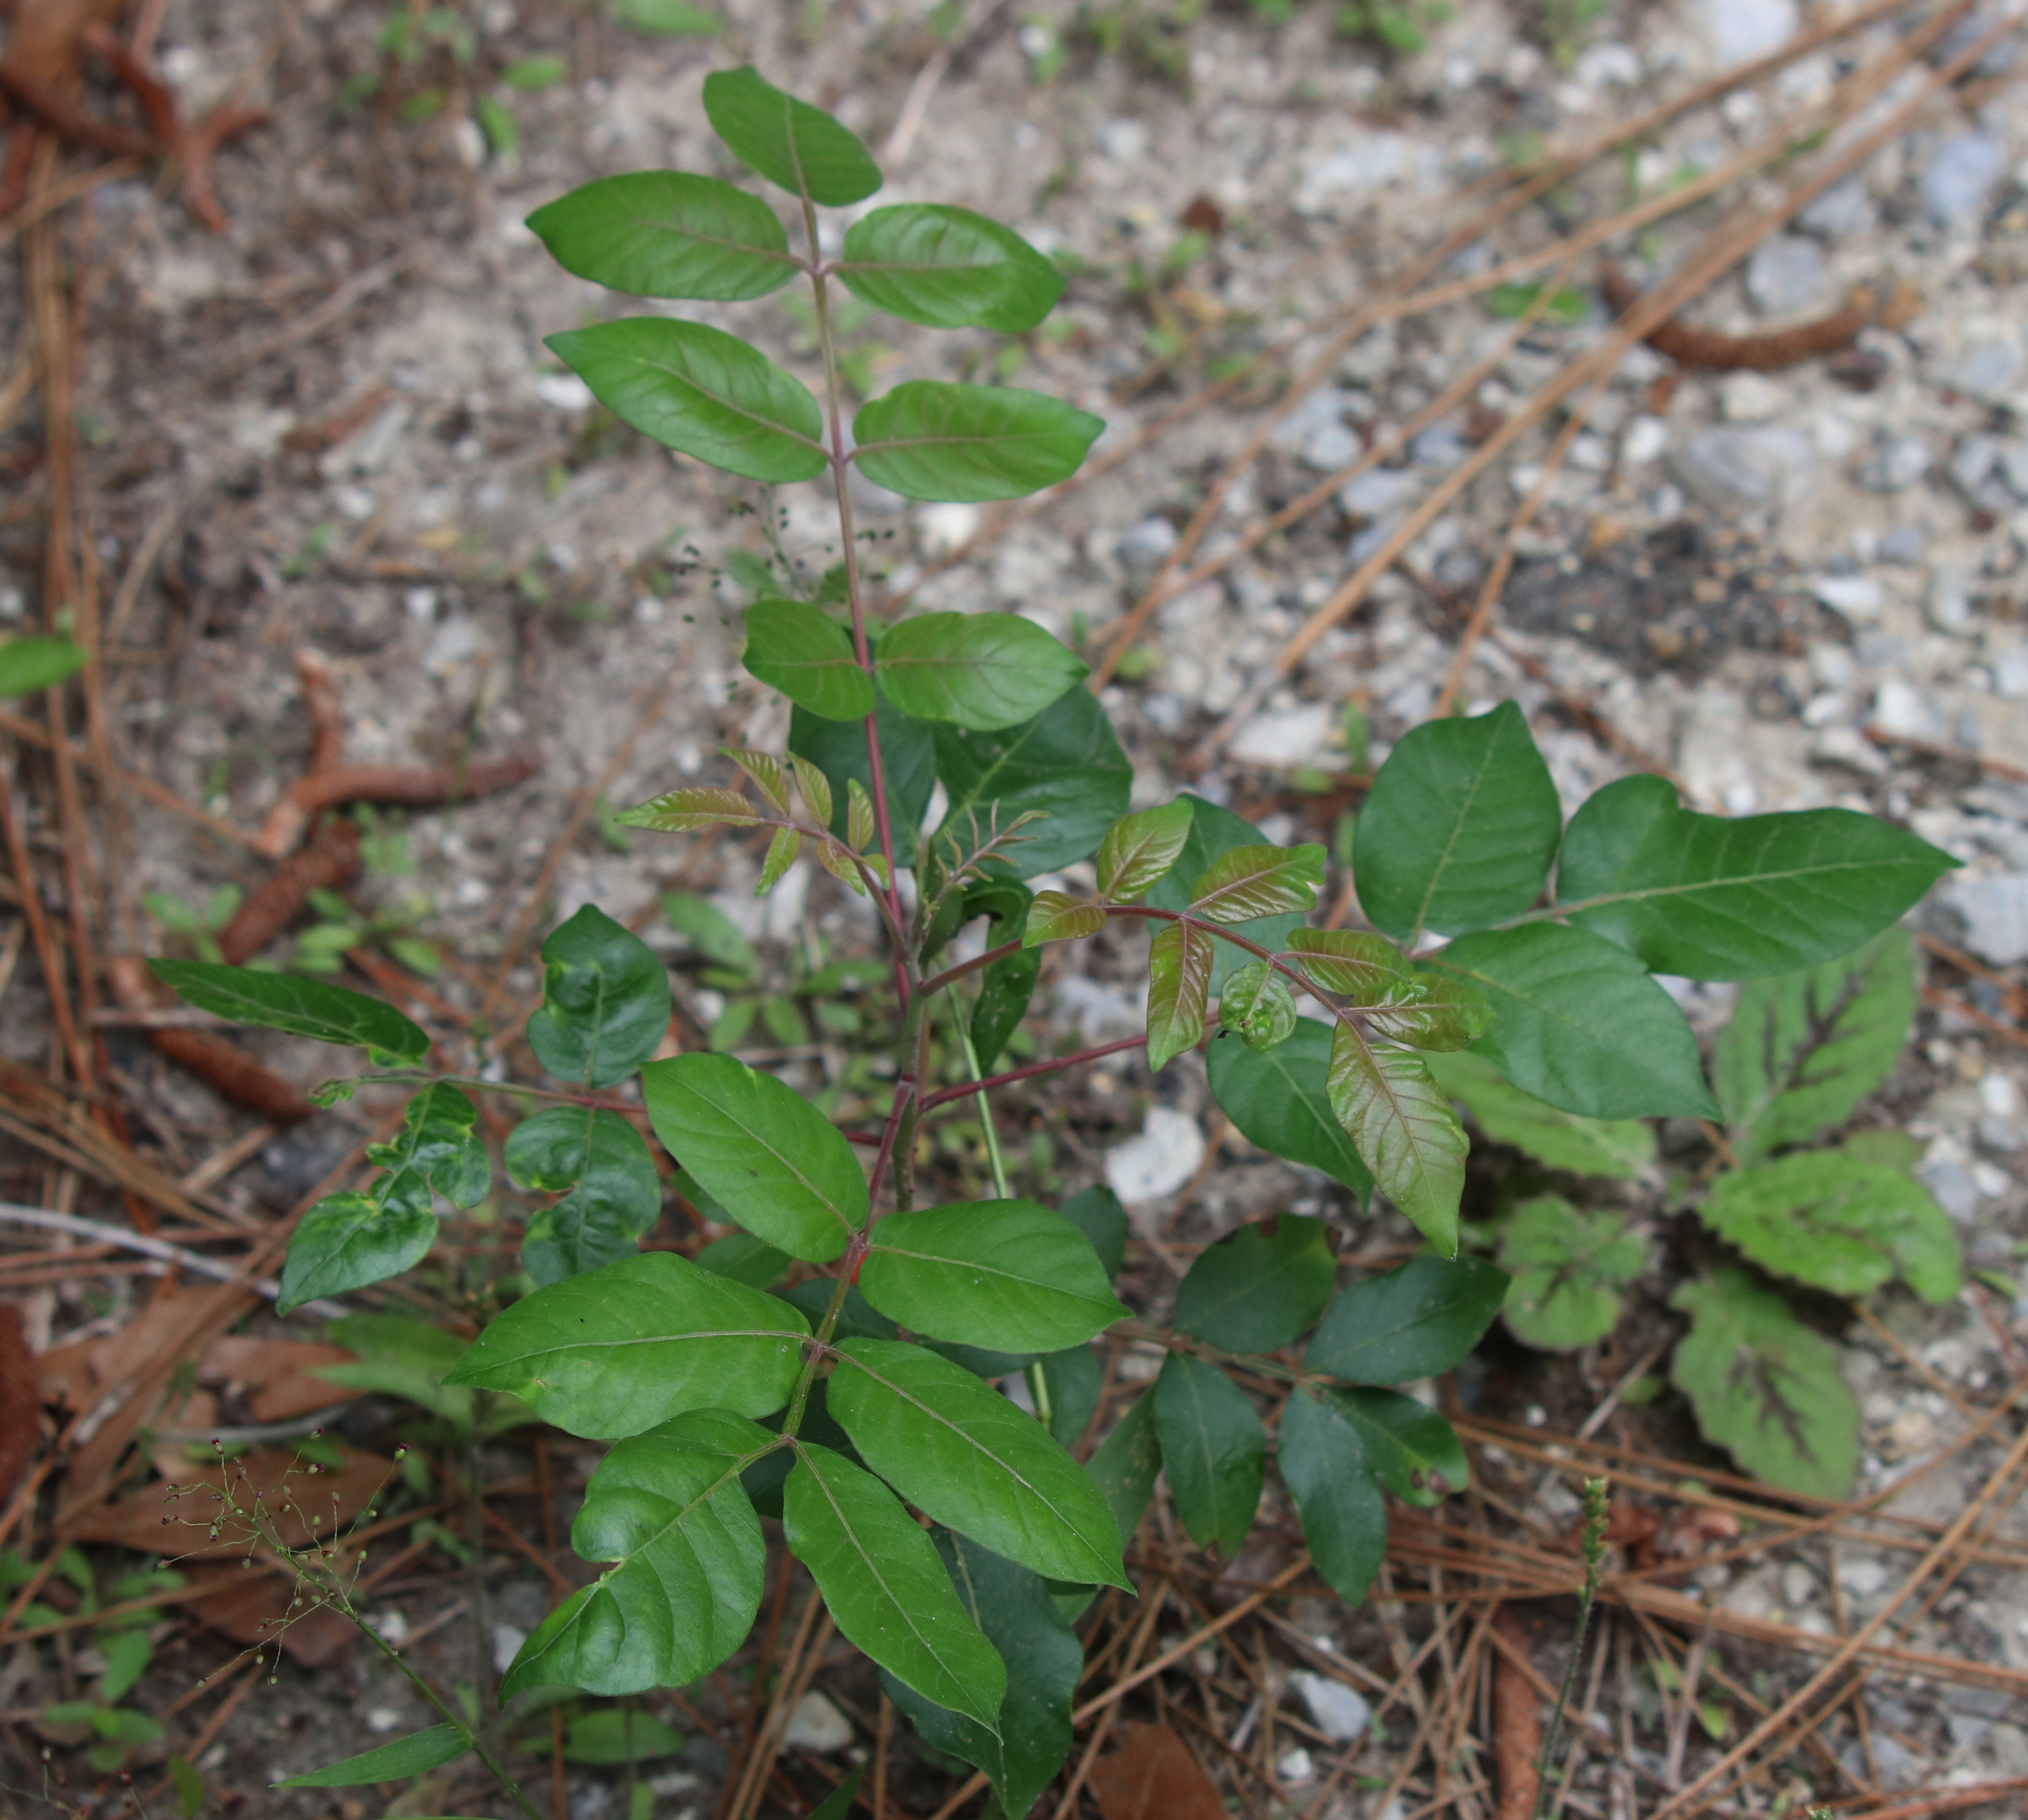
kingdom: Plantae
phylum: Tracheophyta
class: Magnoliopsida
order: Sapindales
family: Anacardiaceae
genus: Rhus
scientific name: Rhus copallina
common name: Shining sumac
